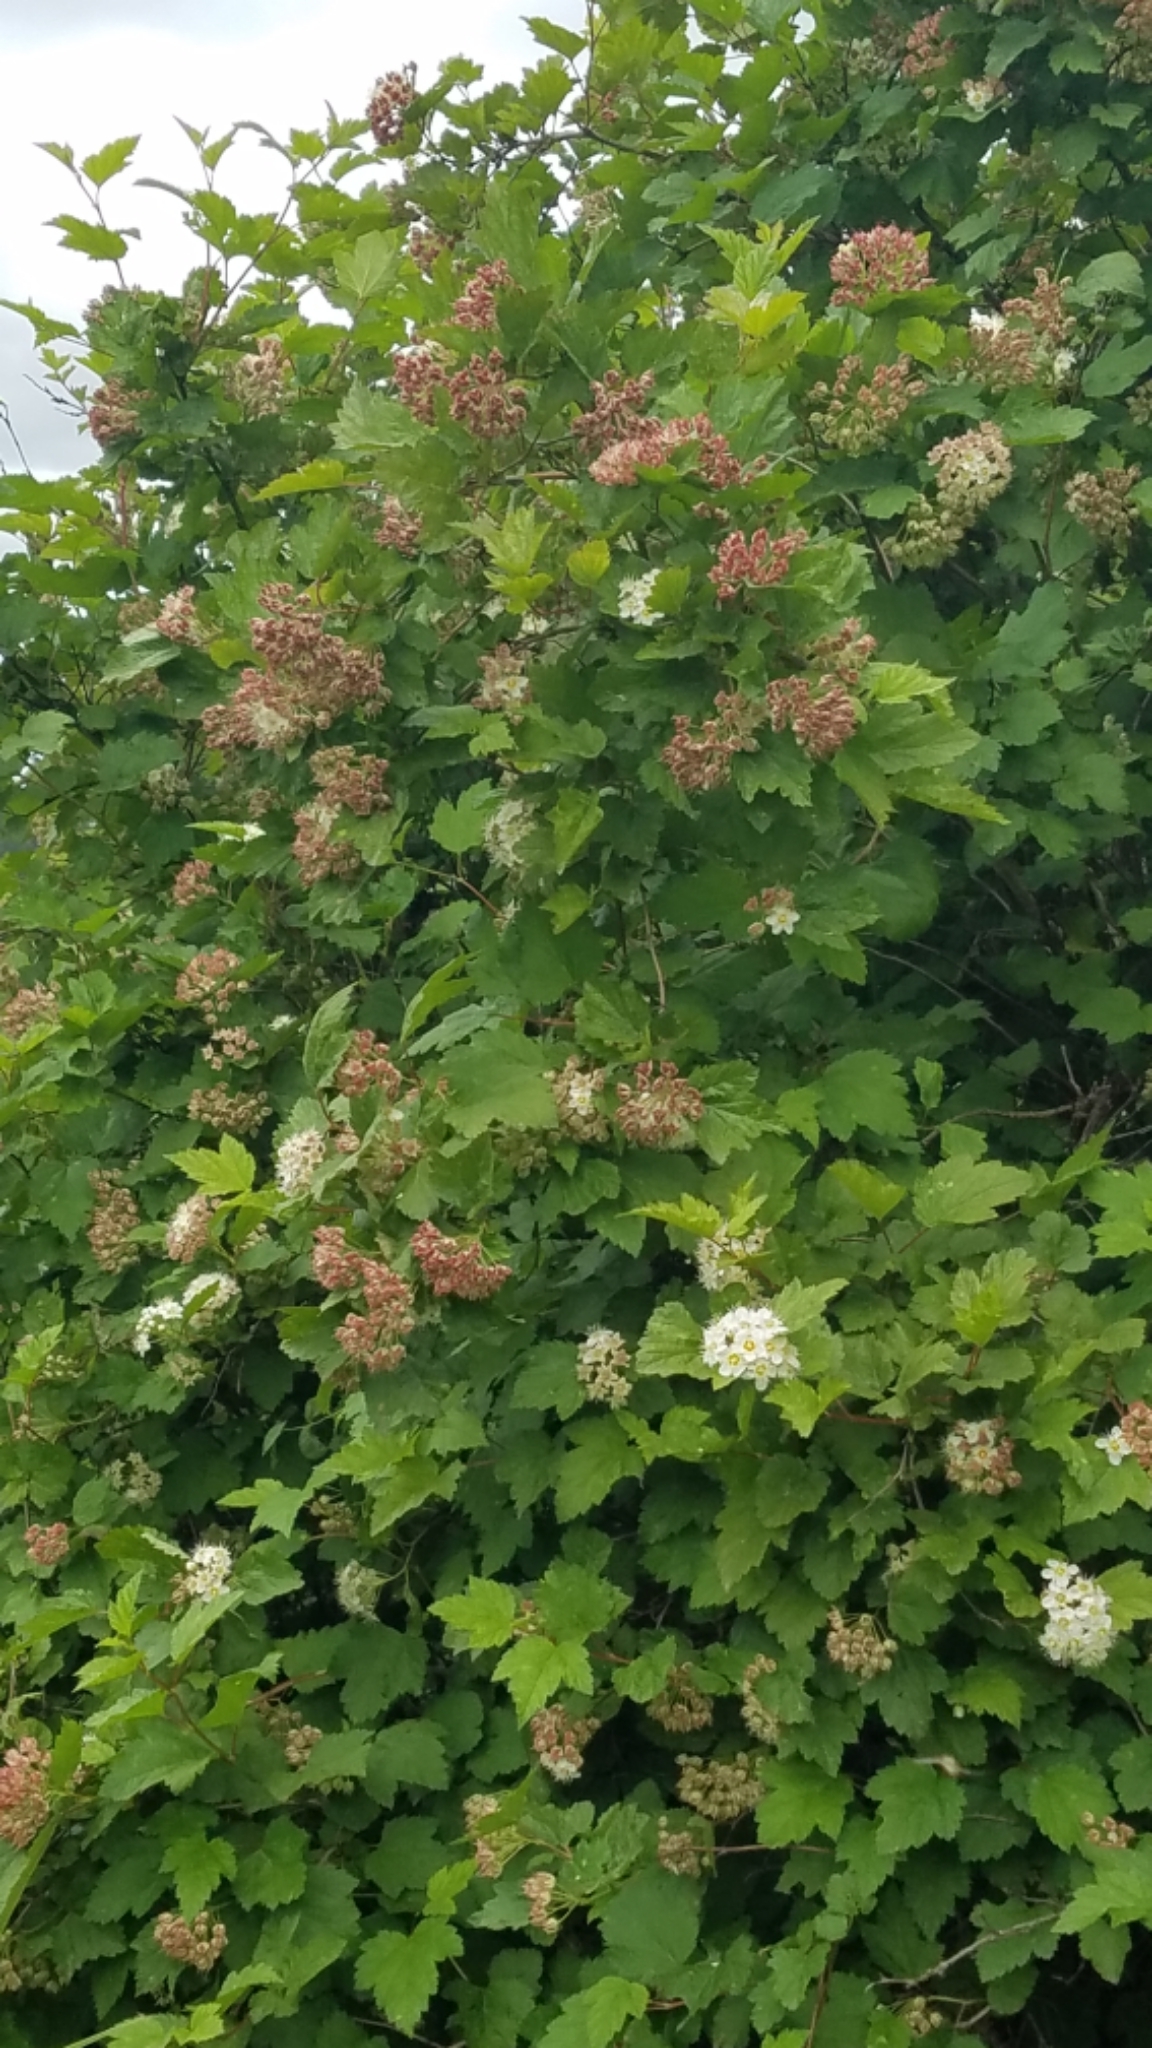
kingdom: Plantae
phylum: Tracheophyta
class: Magnoliopsida
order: Rosales
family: Rosaceae
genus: Physocarpus
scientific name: Physocarpus malvaceus
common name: Mallow ninebark
